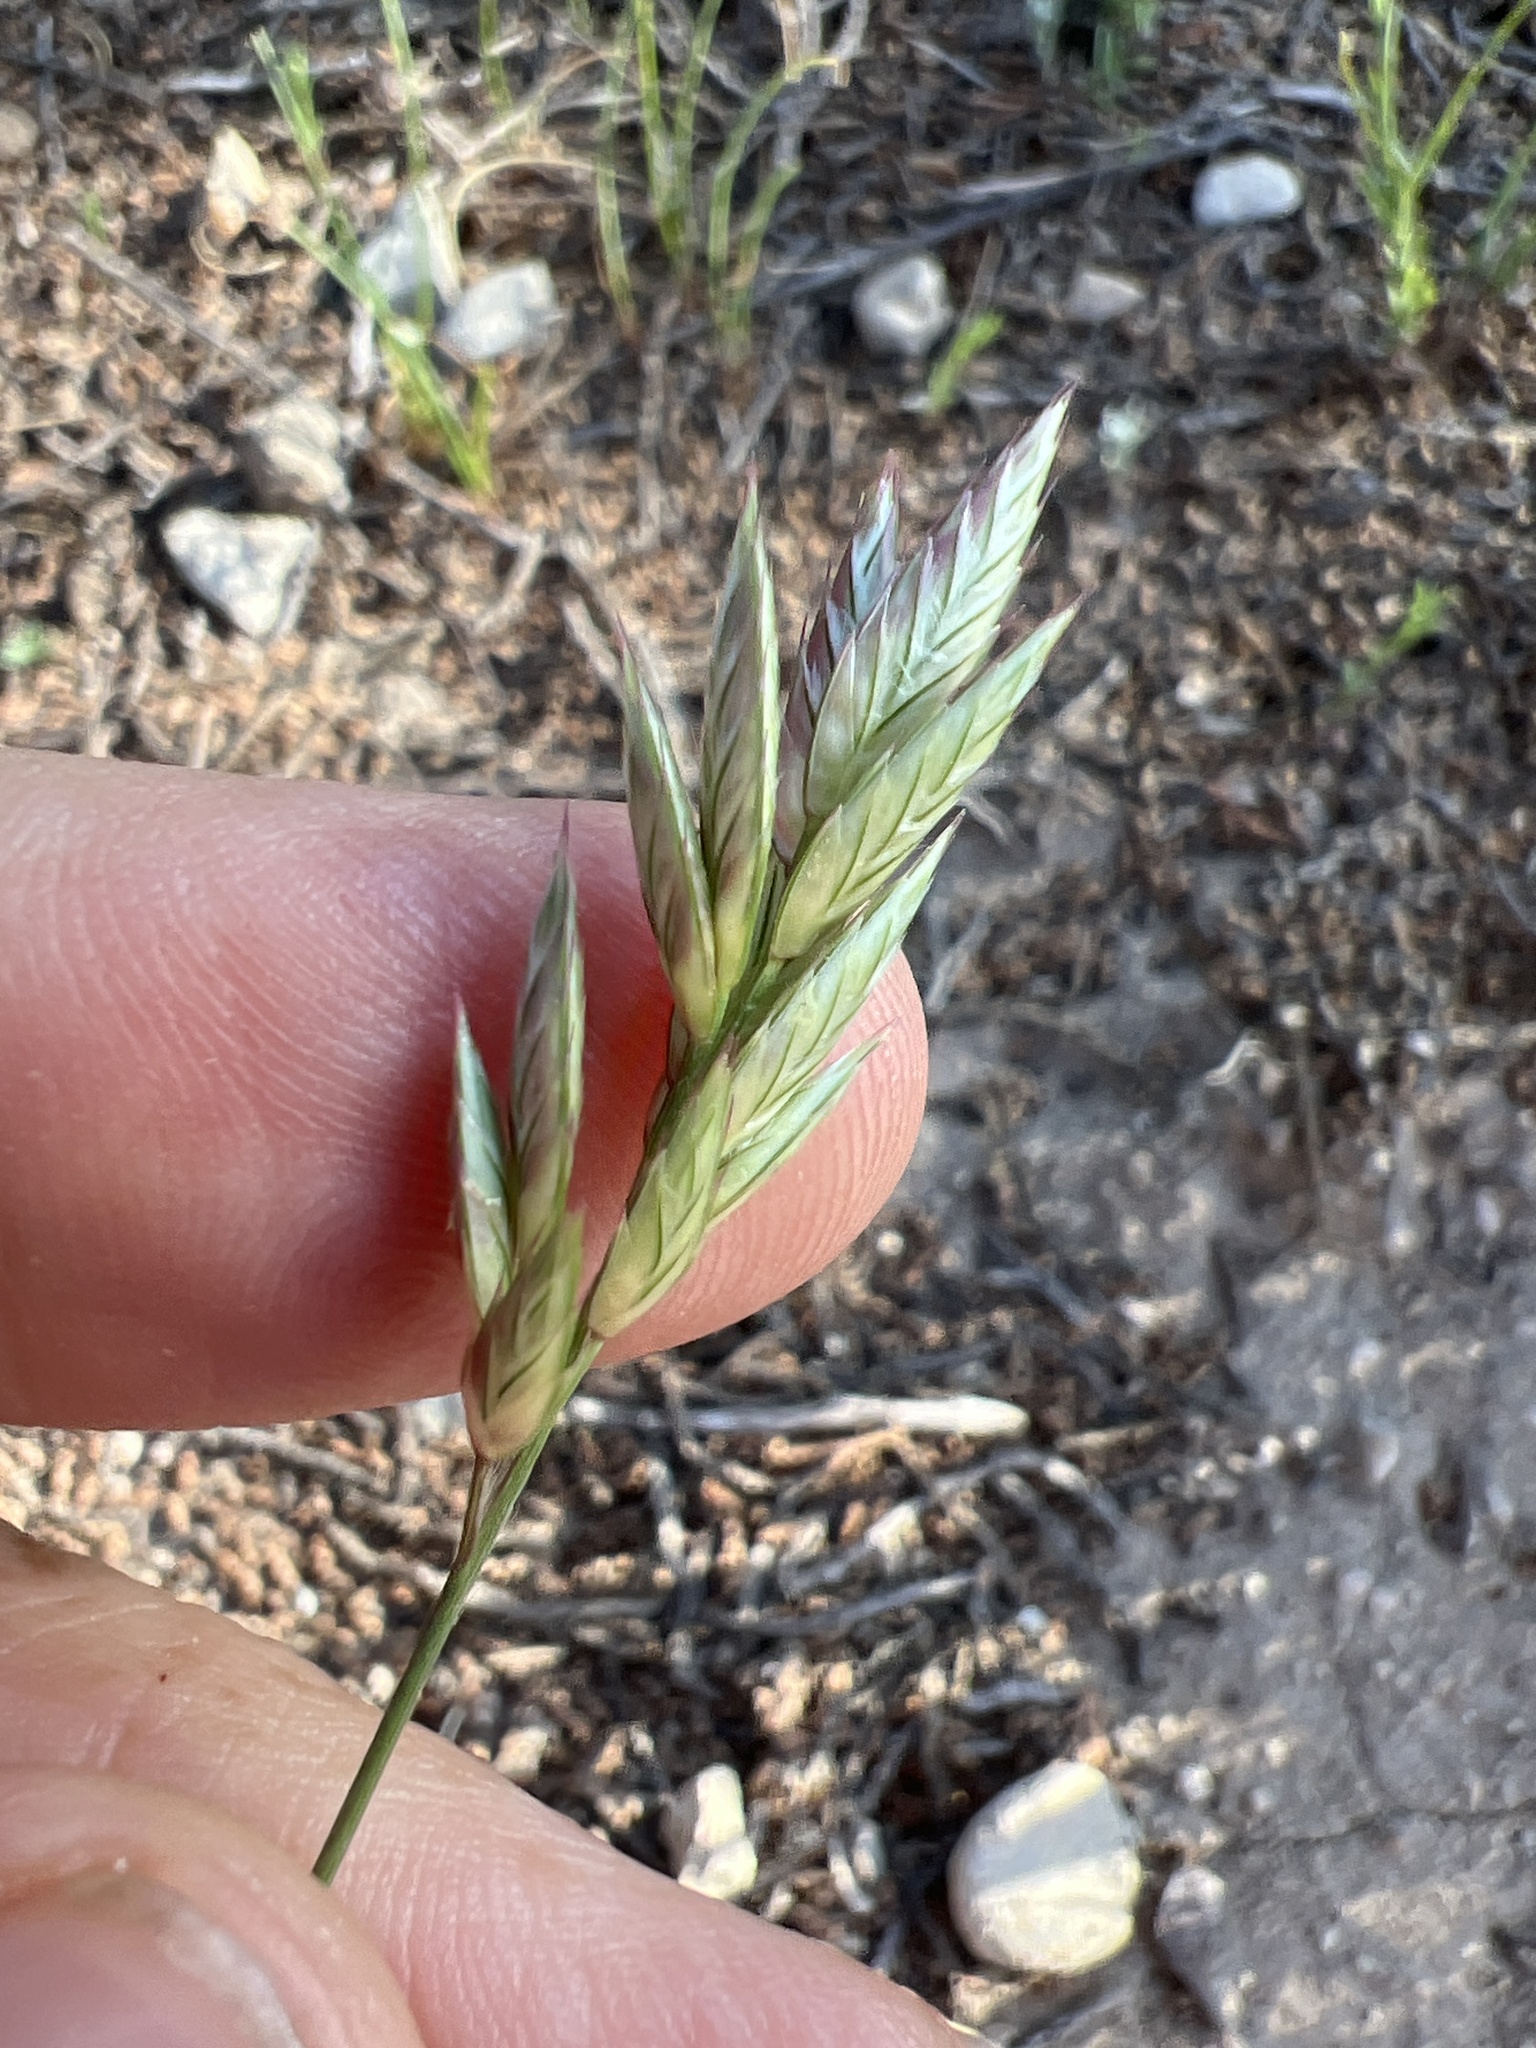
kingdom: Plantae
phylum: Tracheophyta
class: Liliopsida
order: Poales
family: Poaceae
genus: Bromus
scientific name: Bromus catharticus
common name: Rescuegrass
